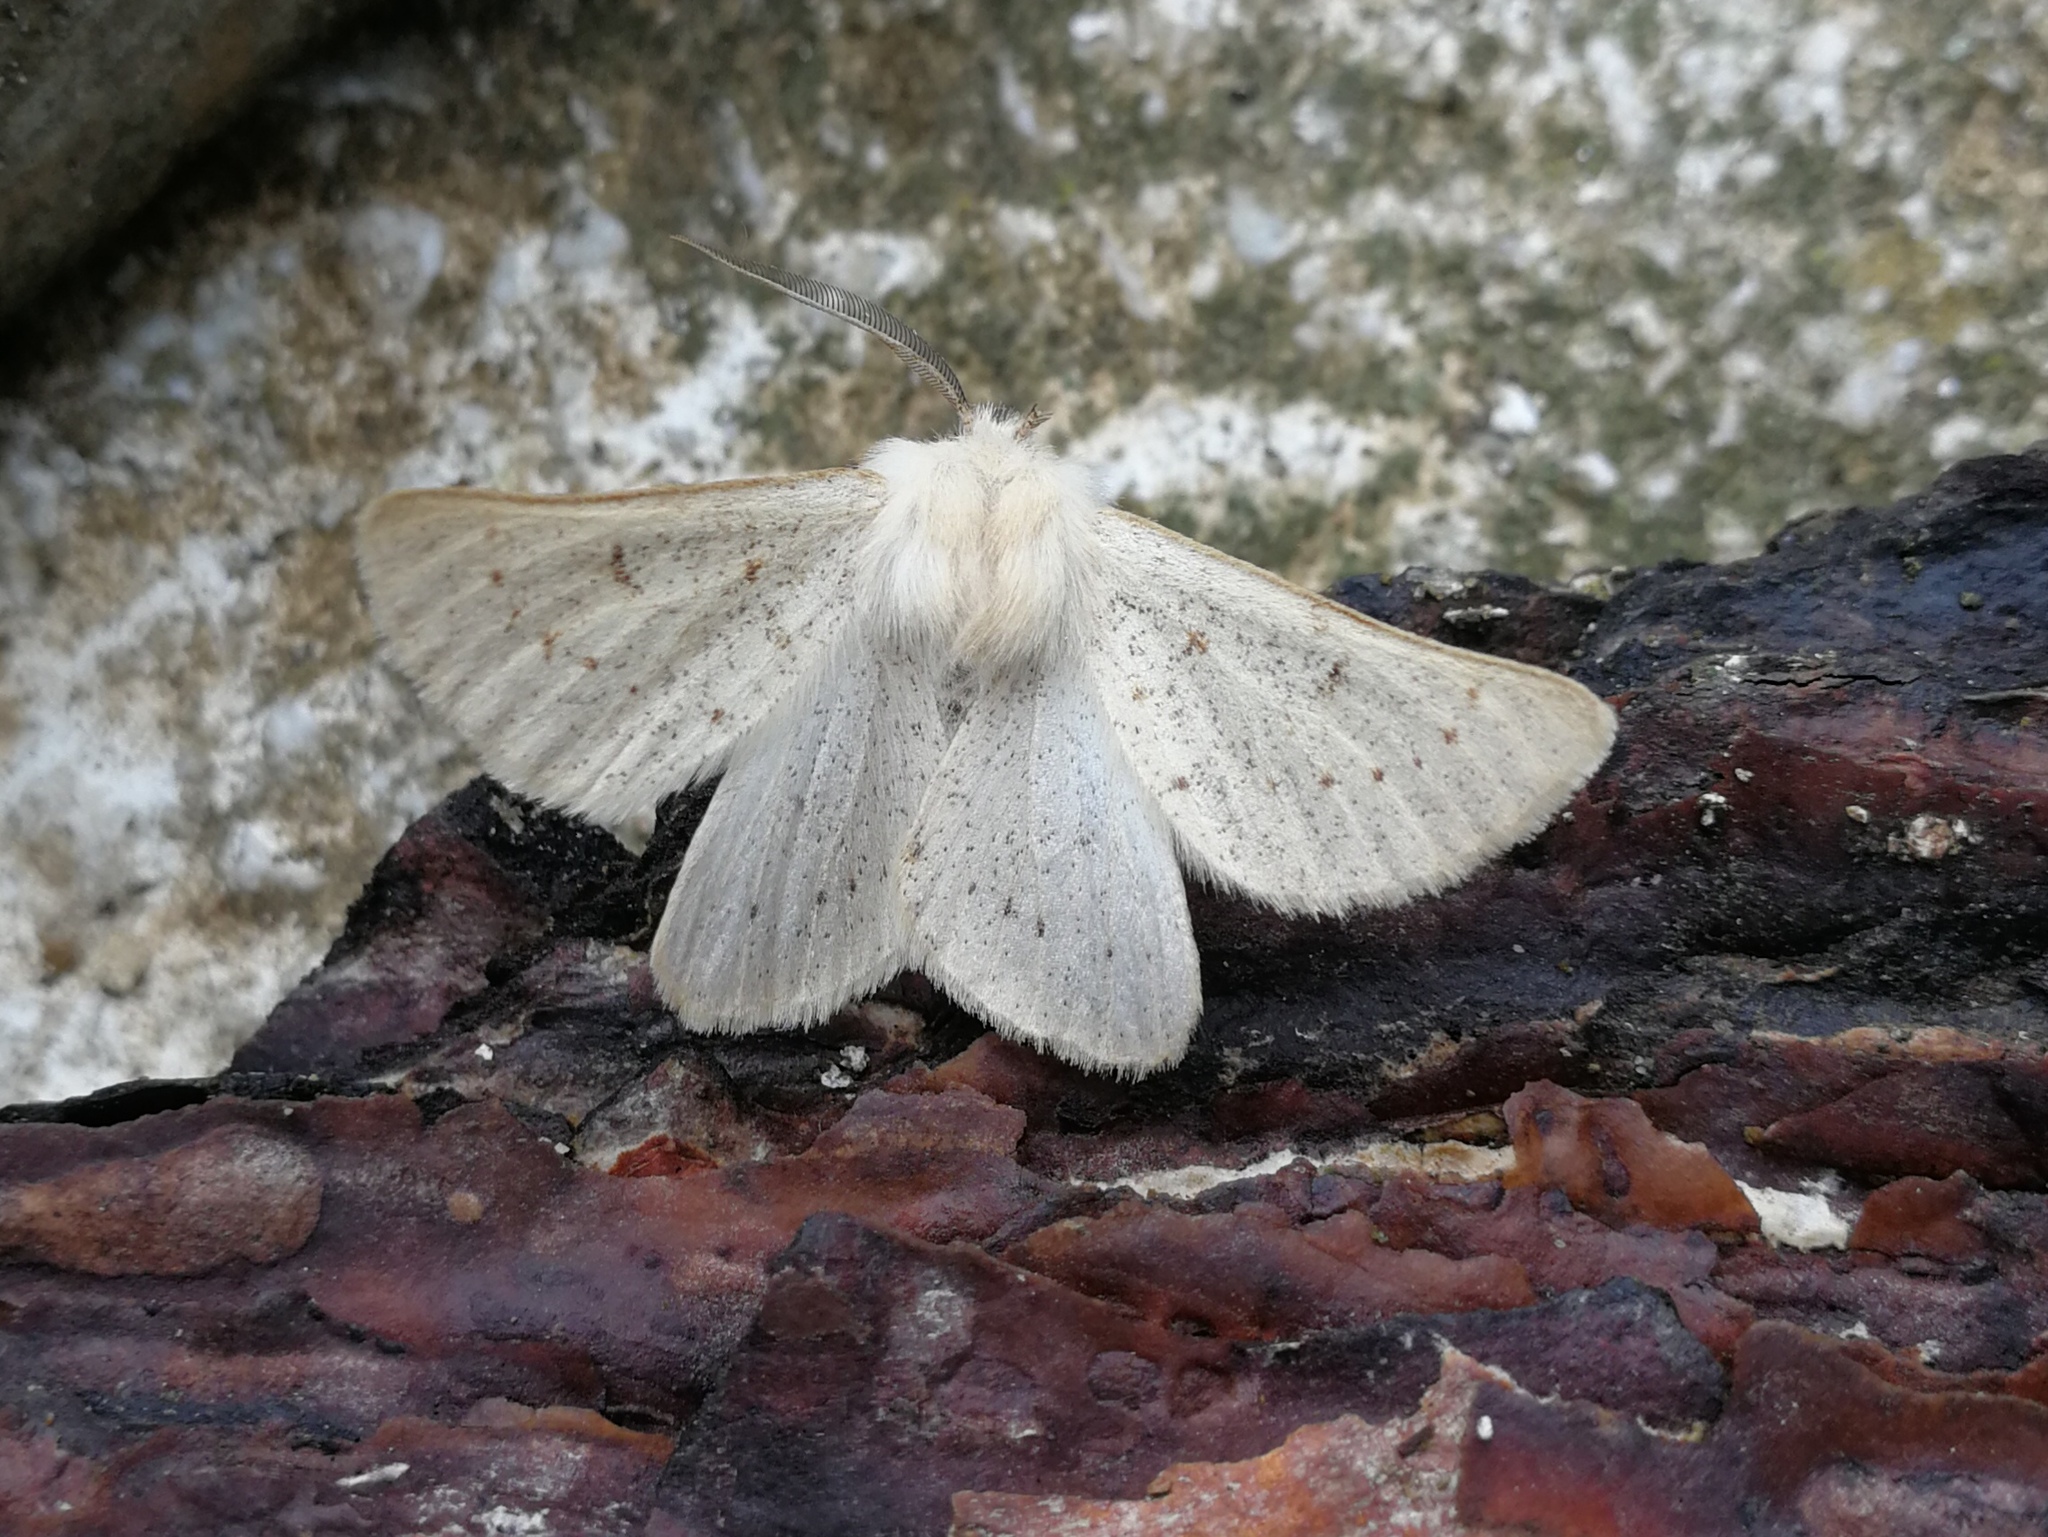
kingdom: Animalia
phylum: Arthropoda
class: Insecta
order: Lepidoptera
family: Geometridae
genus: Dyscia
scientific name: Dyscia lentiscaria
